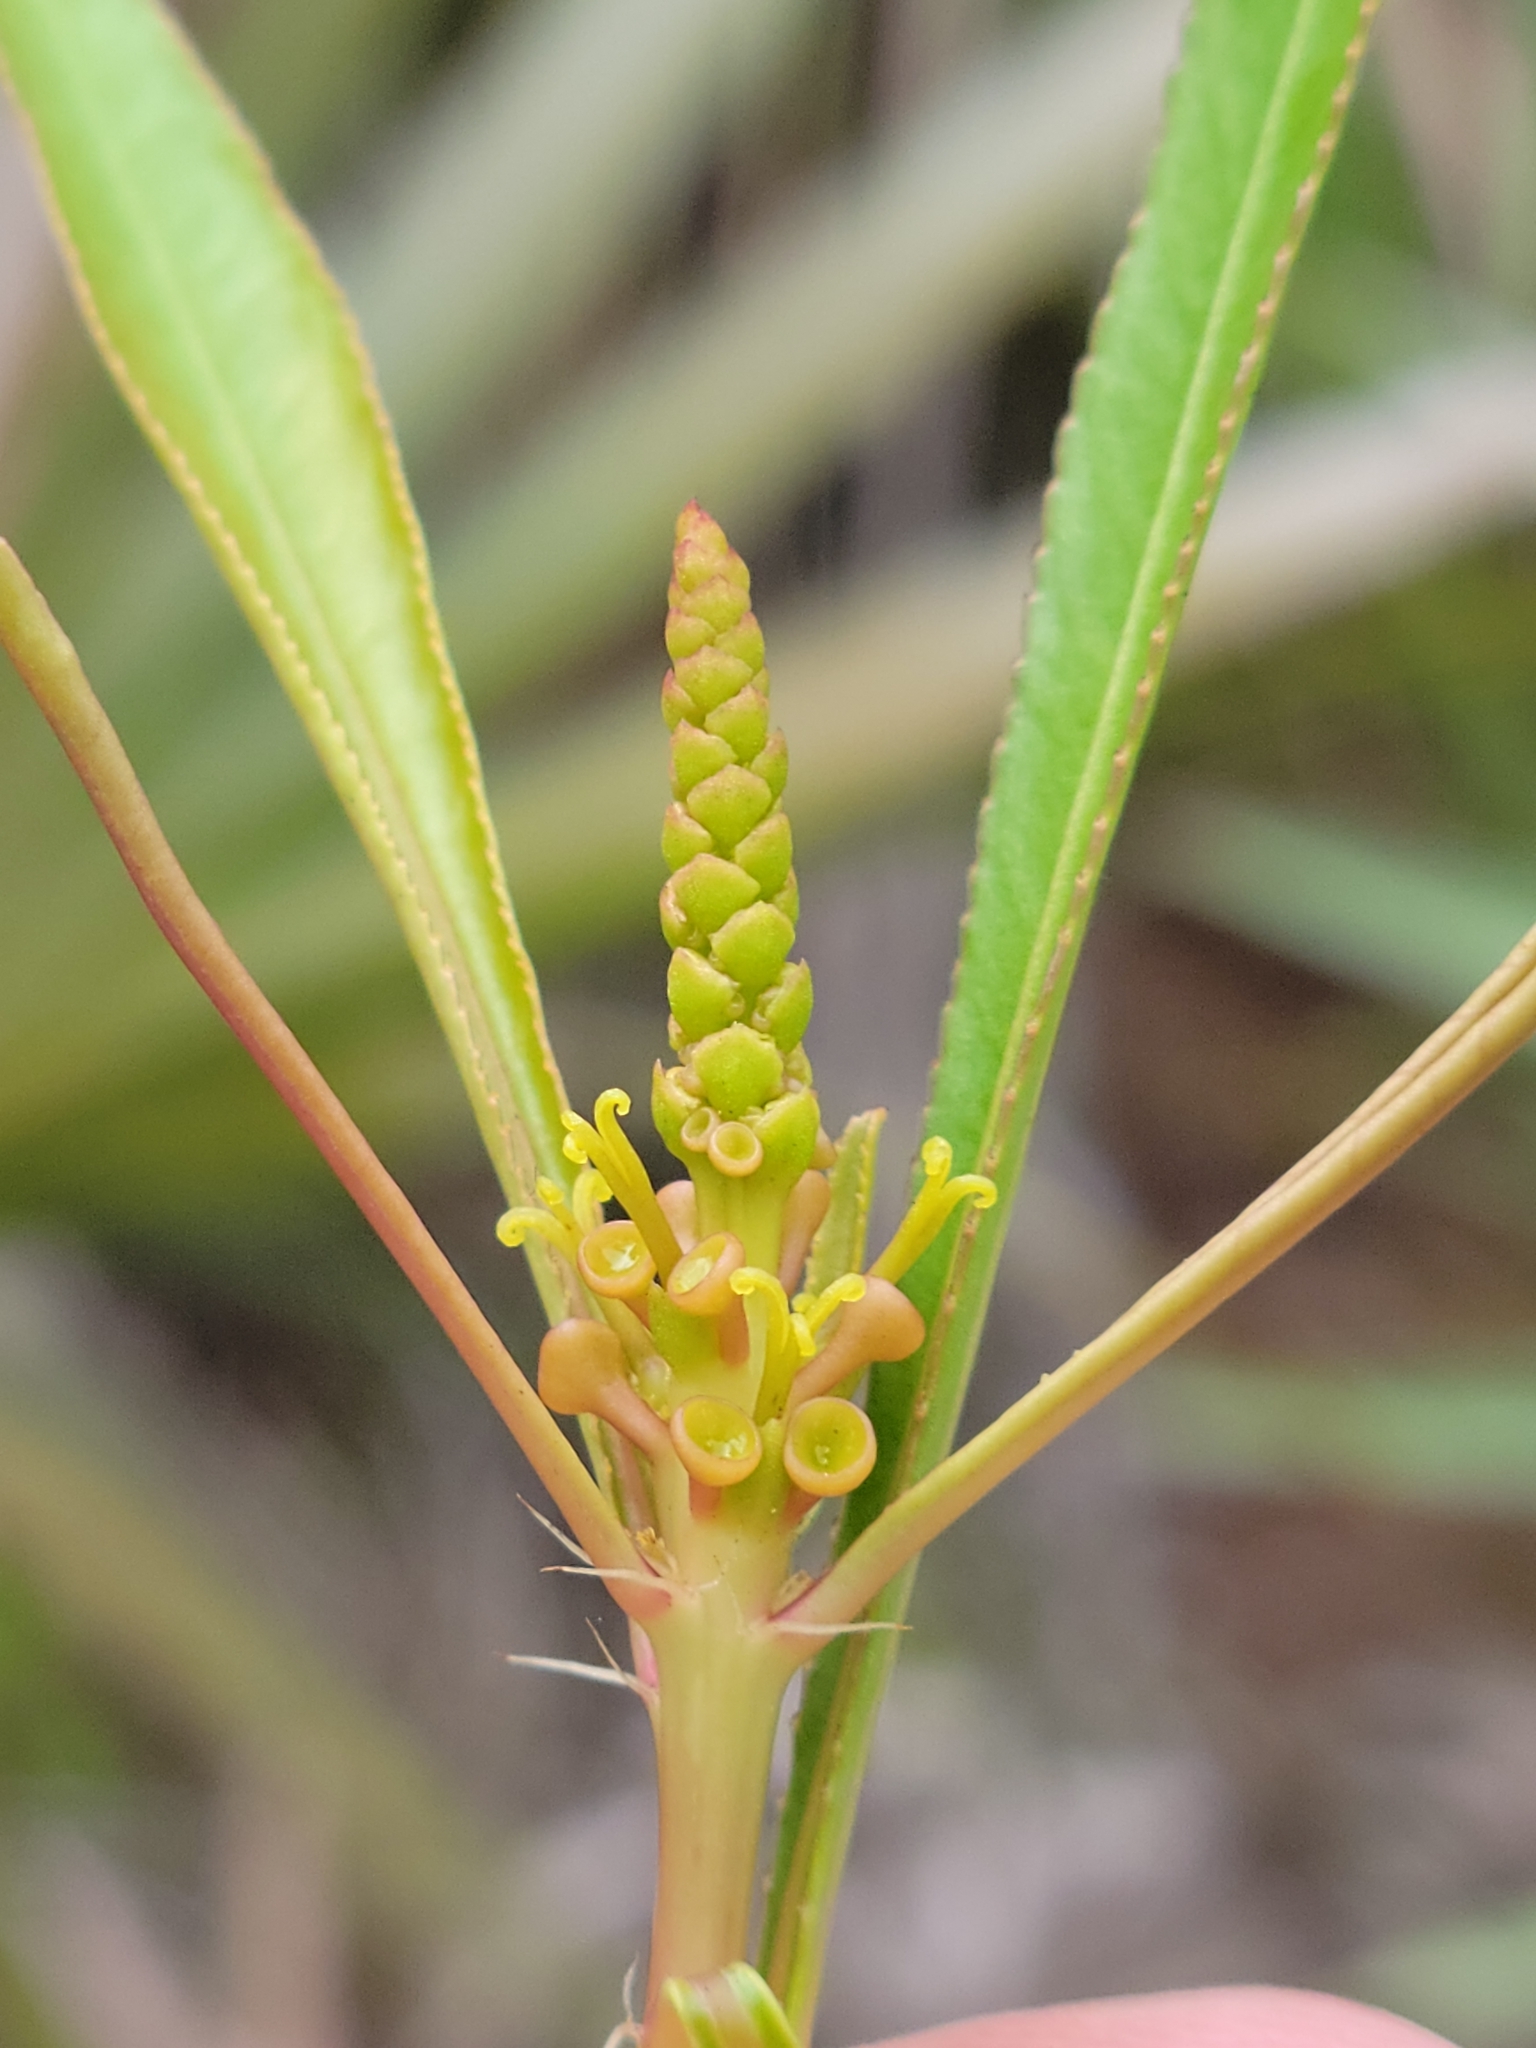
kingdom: Plantae
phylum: Tracheophyta
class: Magnoliopsida
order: Malpighiales
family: Euphorbiaceae
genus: Stillingia
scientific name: Stillingia sylvatica
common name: Queen's-delight
